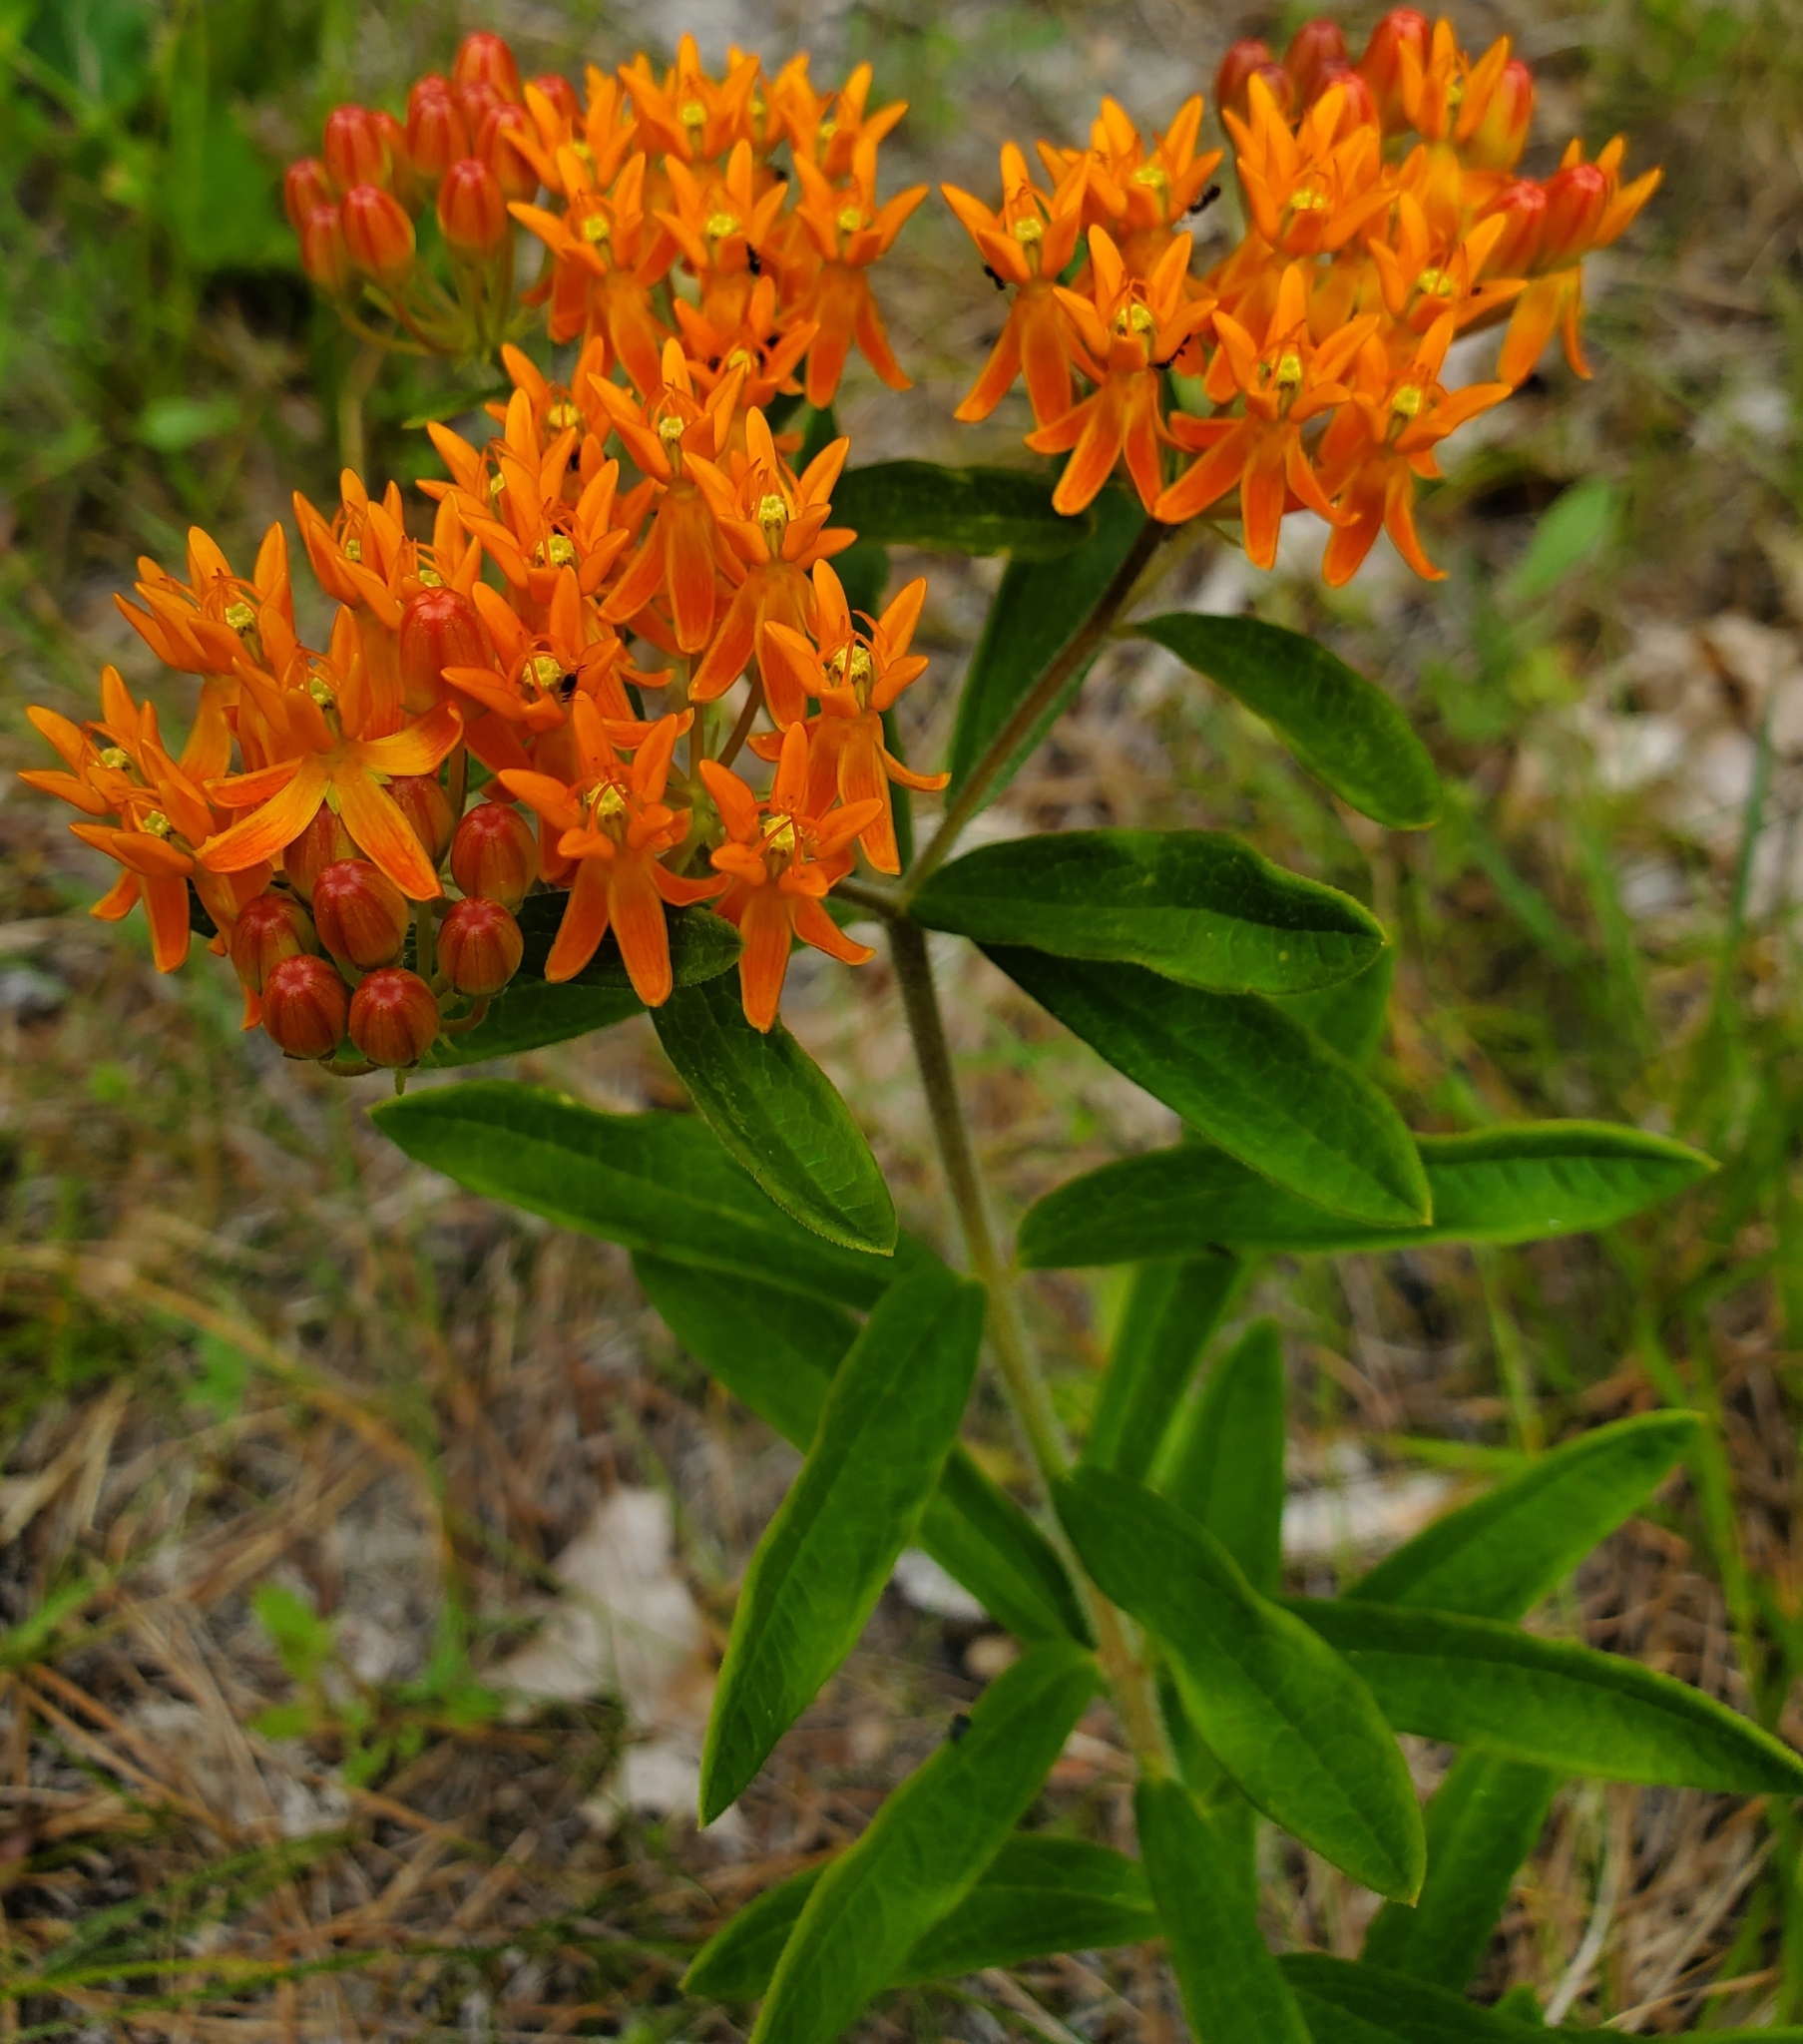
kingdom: Plantae
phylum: Tracheophyta
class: Magnoliopsida
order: Gentianales
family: Apocynaceae
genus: Asclepias
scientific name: Asclepias tuberosa
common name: Butterfly milkweed
